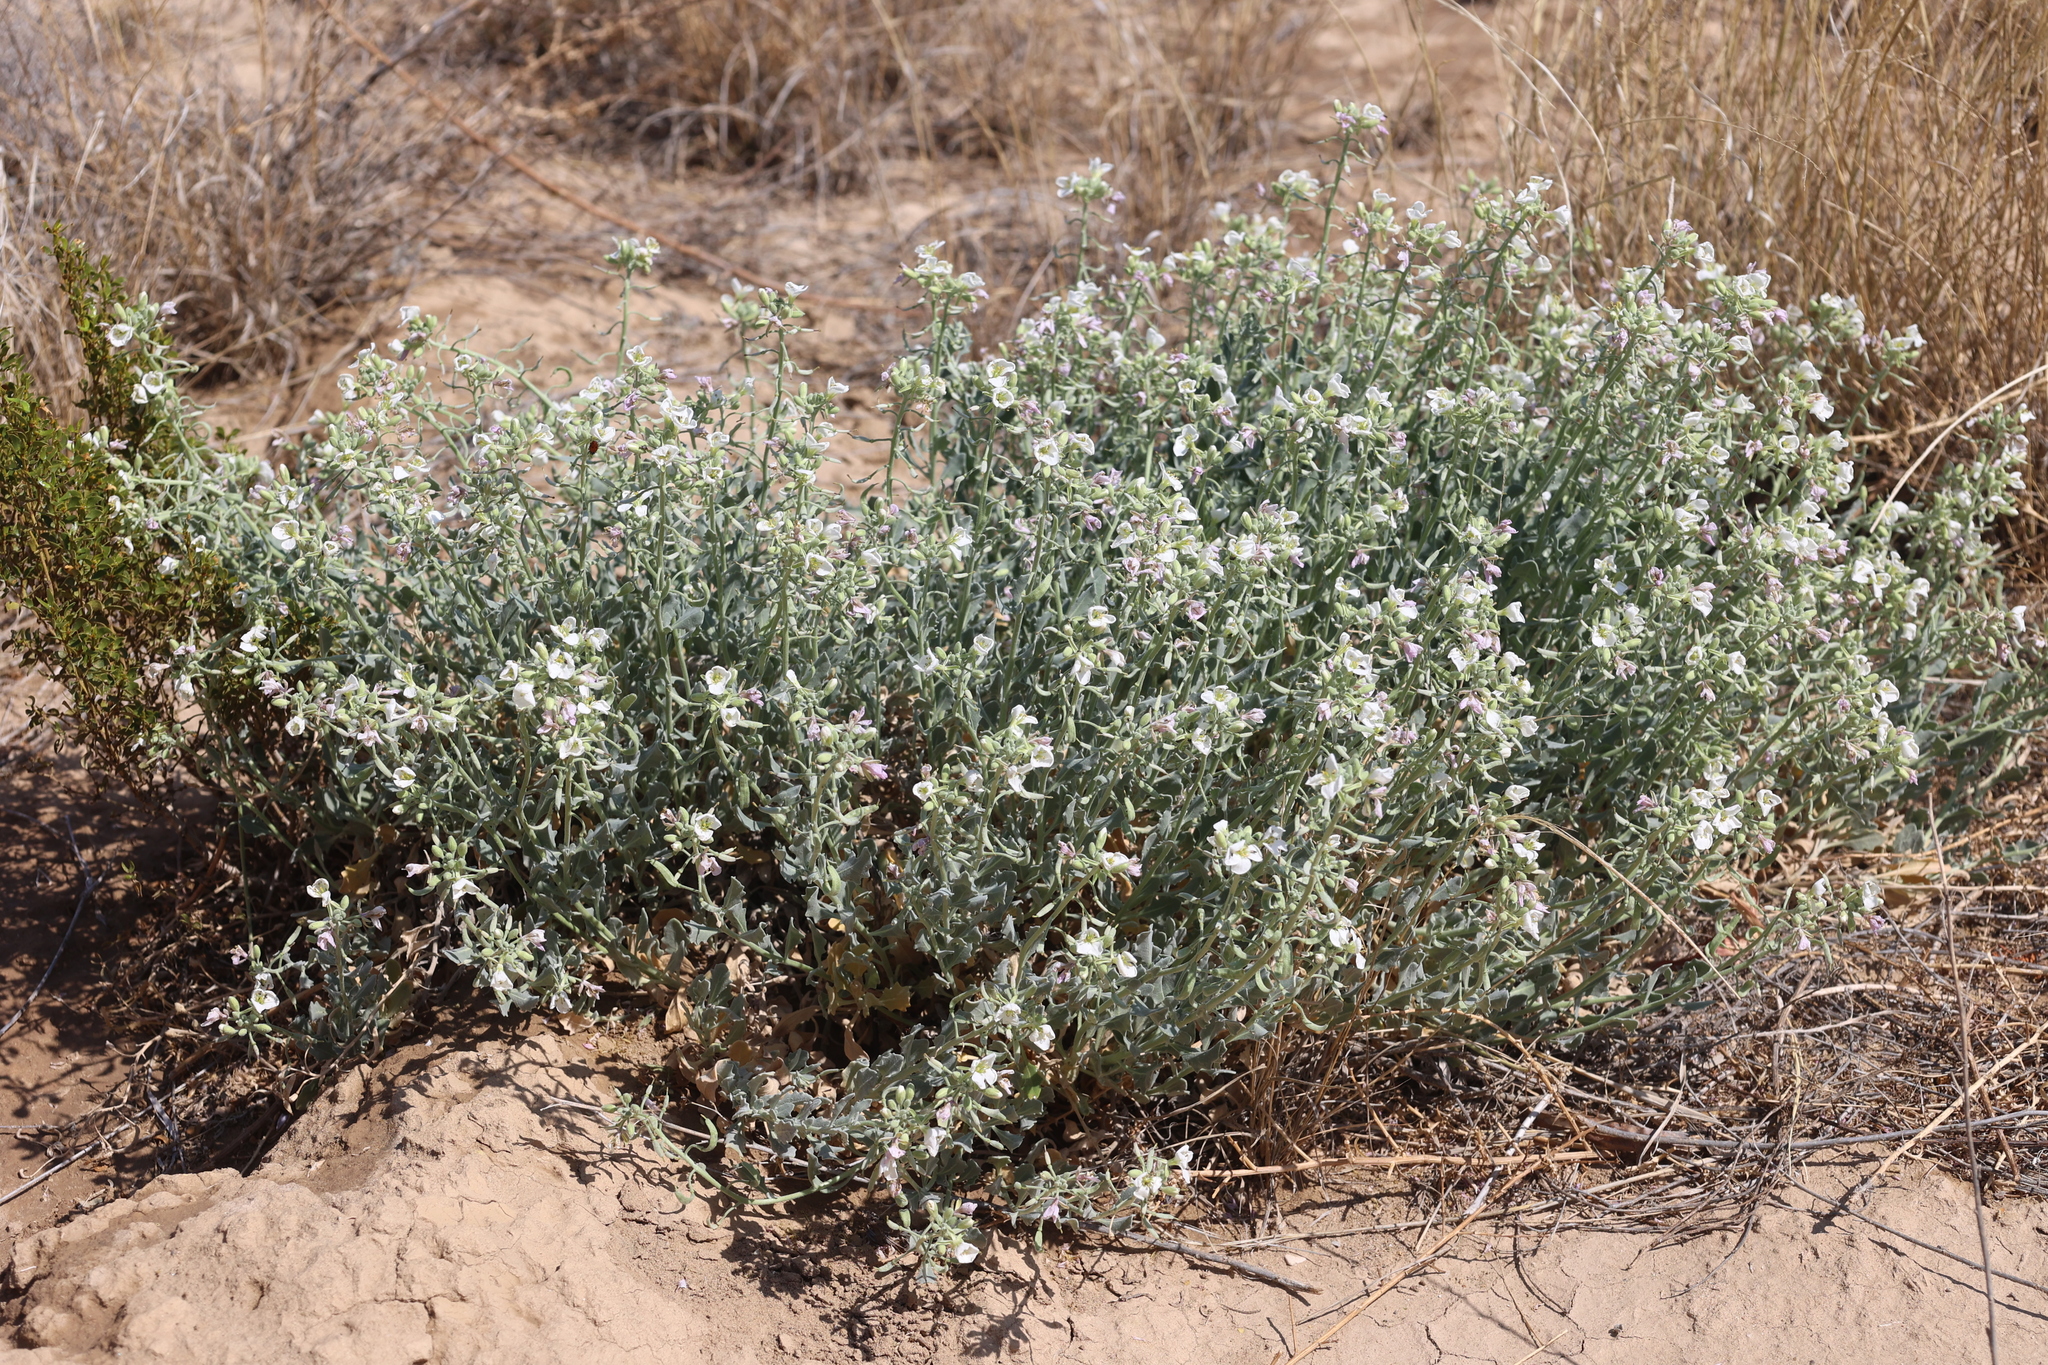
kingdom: Plantae
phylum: Tracheophyta
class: Magnoliopsida
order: Brassicales
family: Brassicaceae
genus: Nerisyrenia
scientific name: Nerisyrenia camporum
